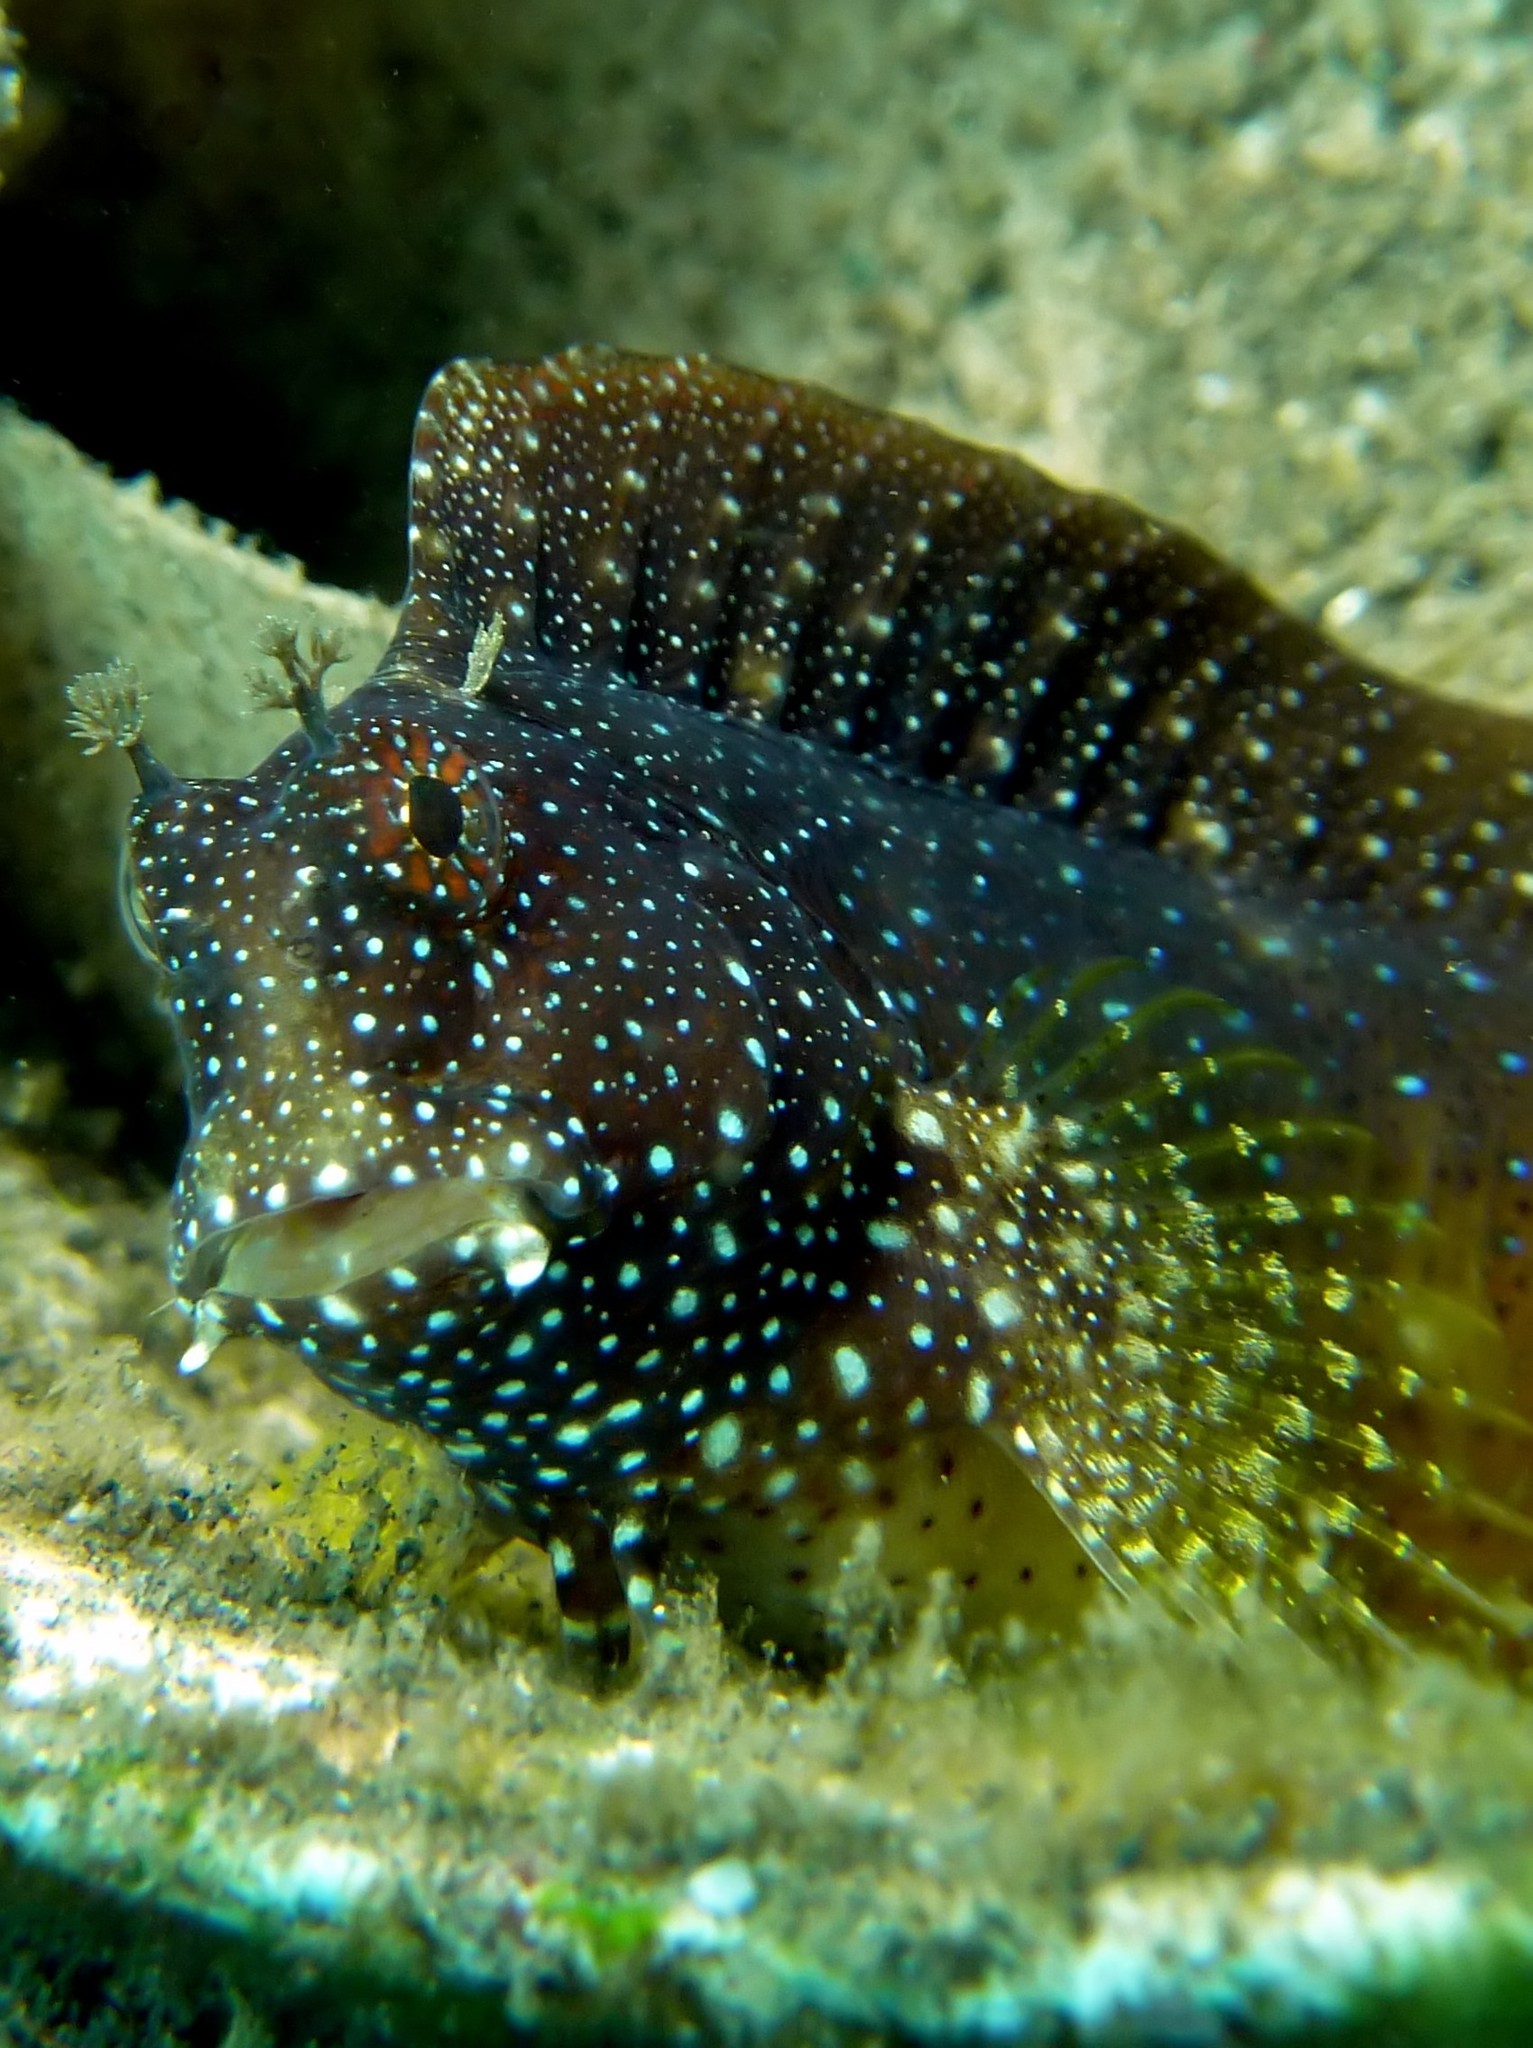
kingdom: Animalia
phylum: Chordata
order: Perciformes
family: Blenniidae
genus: Salarias
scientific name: Salarias ramosus
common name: Snowflake blenny
